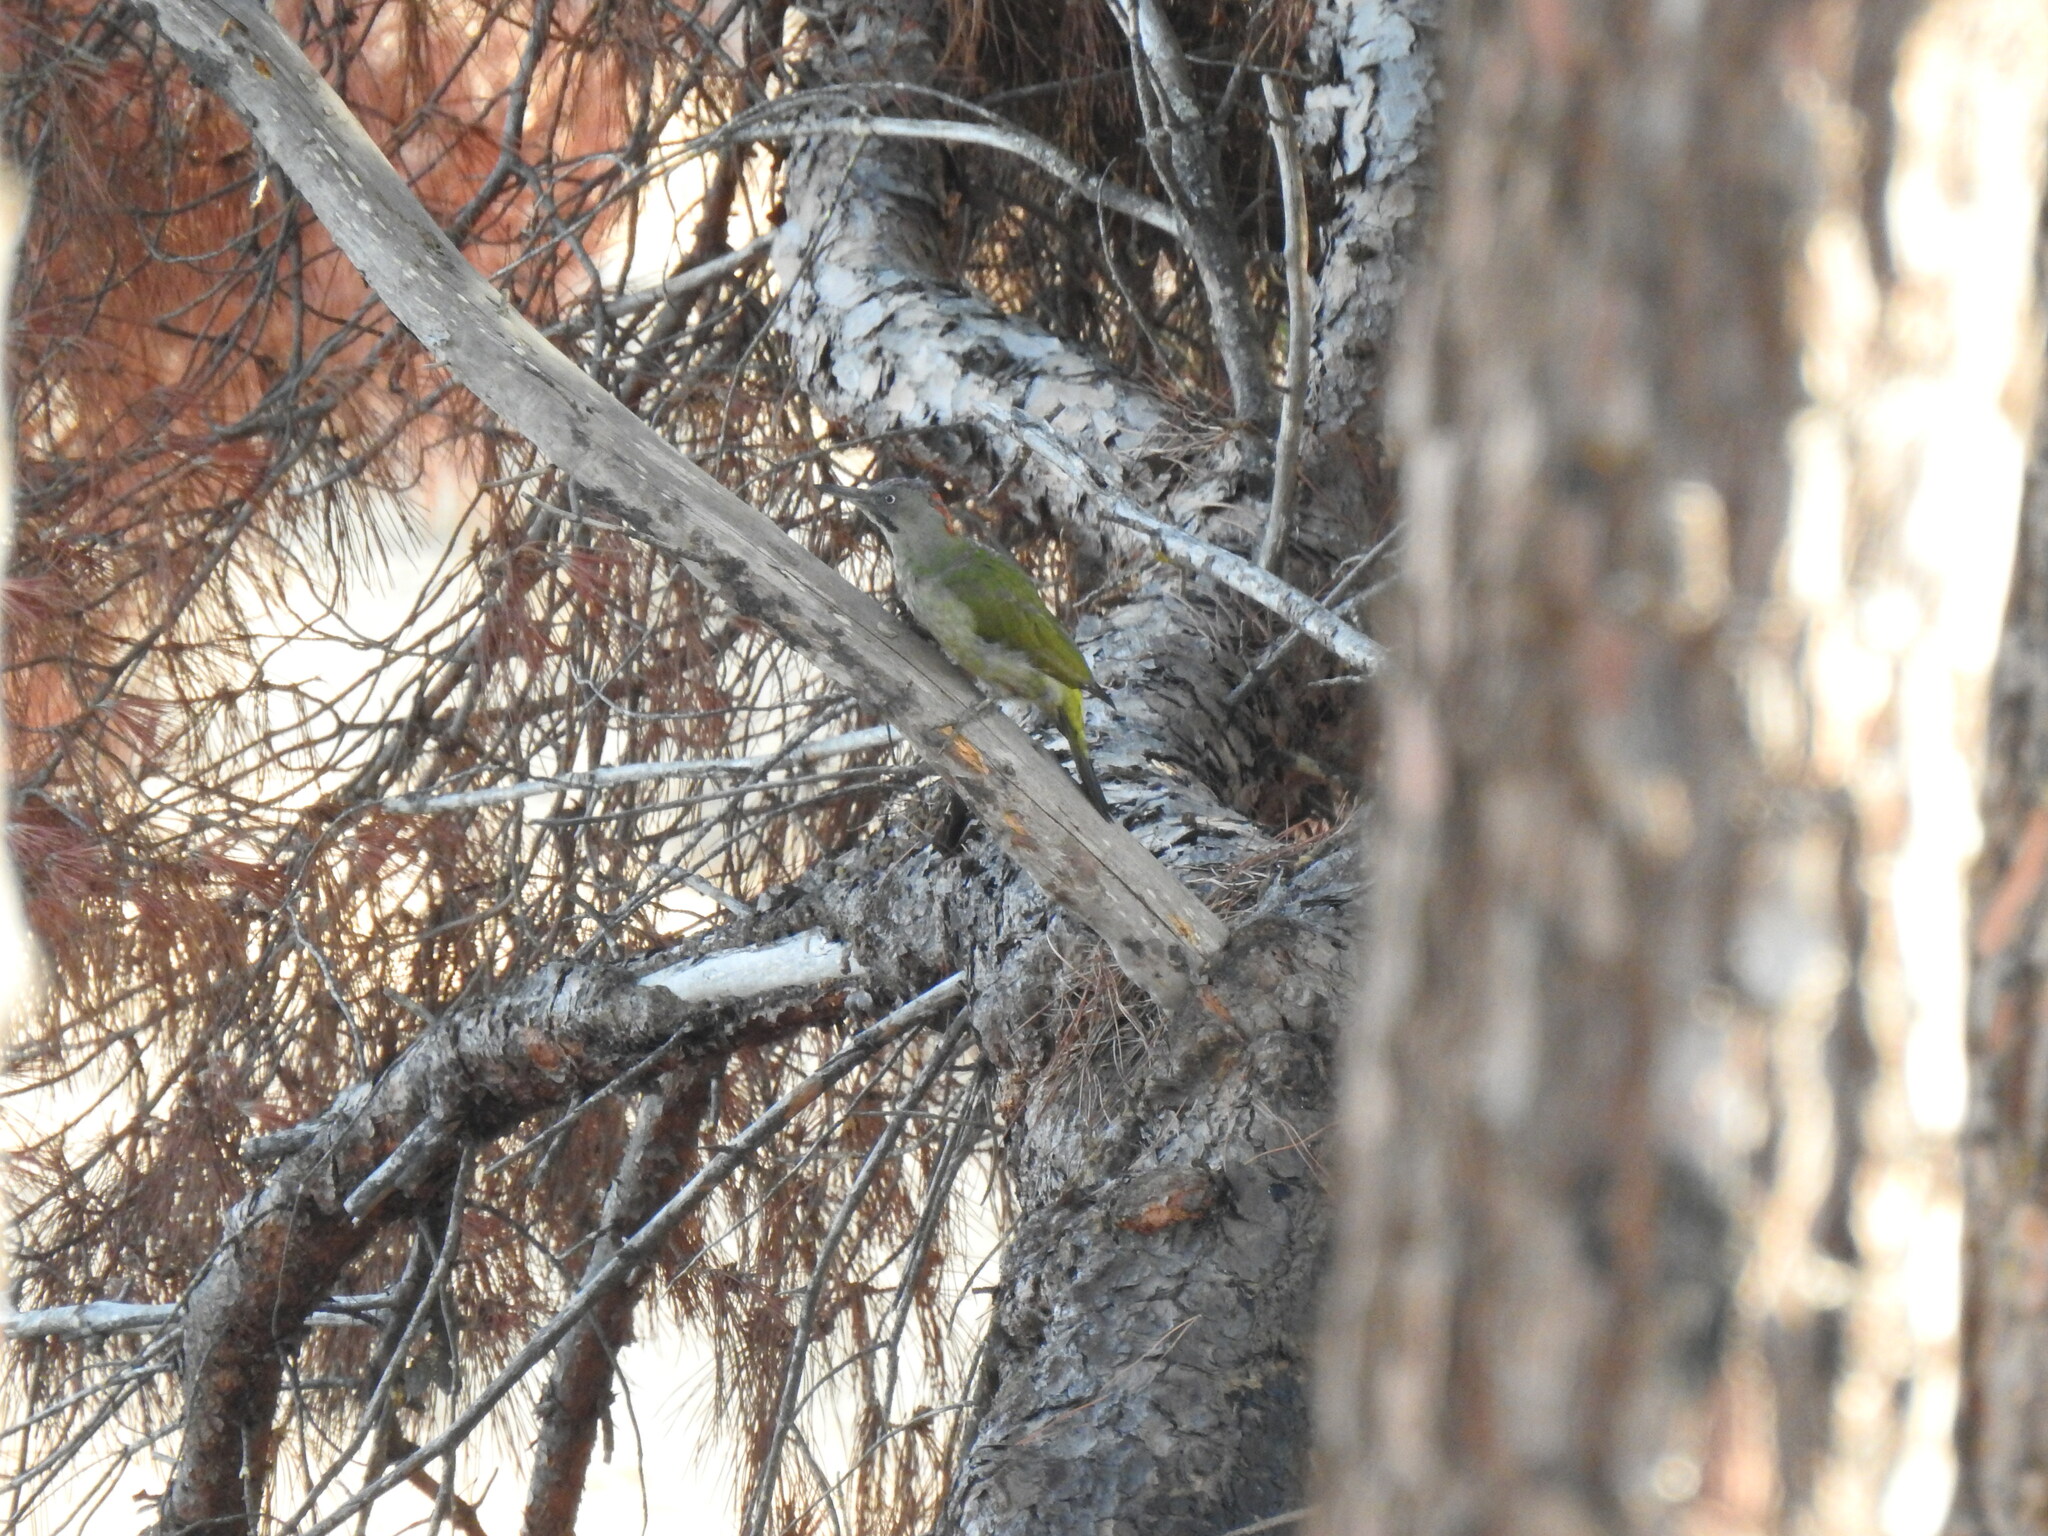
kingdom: Animalia
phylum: Chordata
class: Aves
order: Piciformes
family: Picidae
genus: Picus
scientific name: Picus sharpei
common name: Iberian green woodpecker
